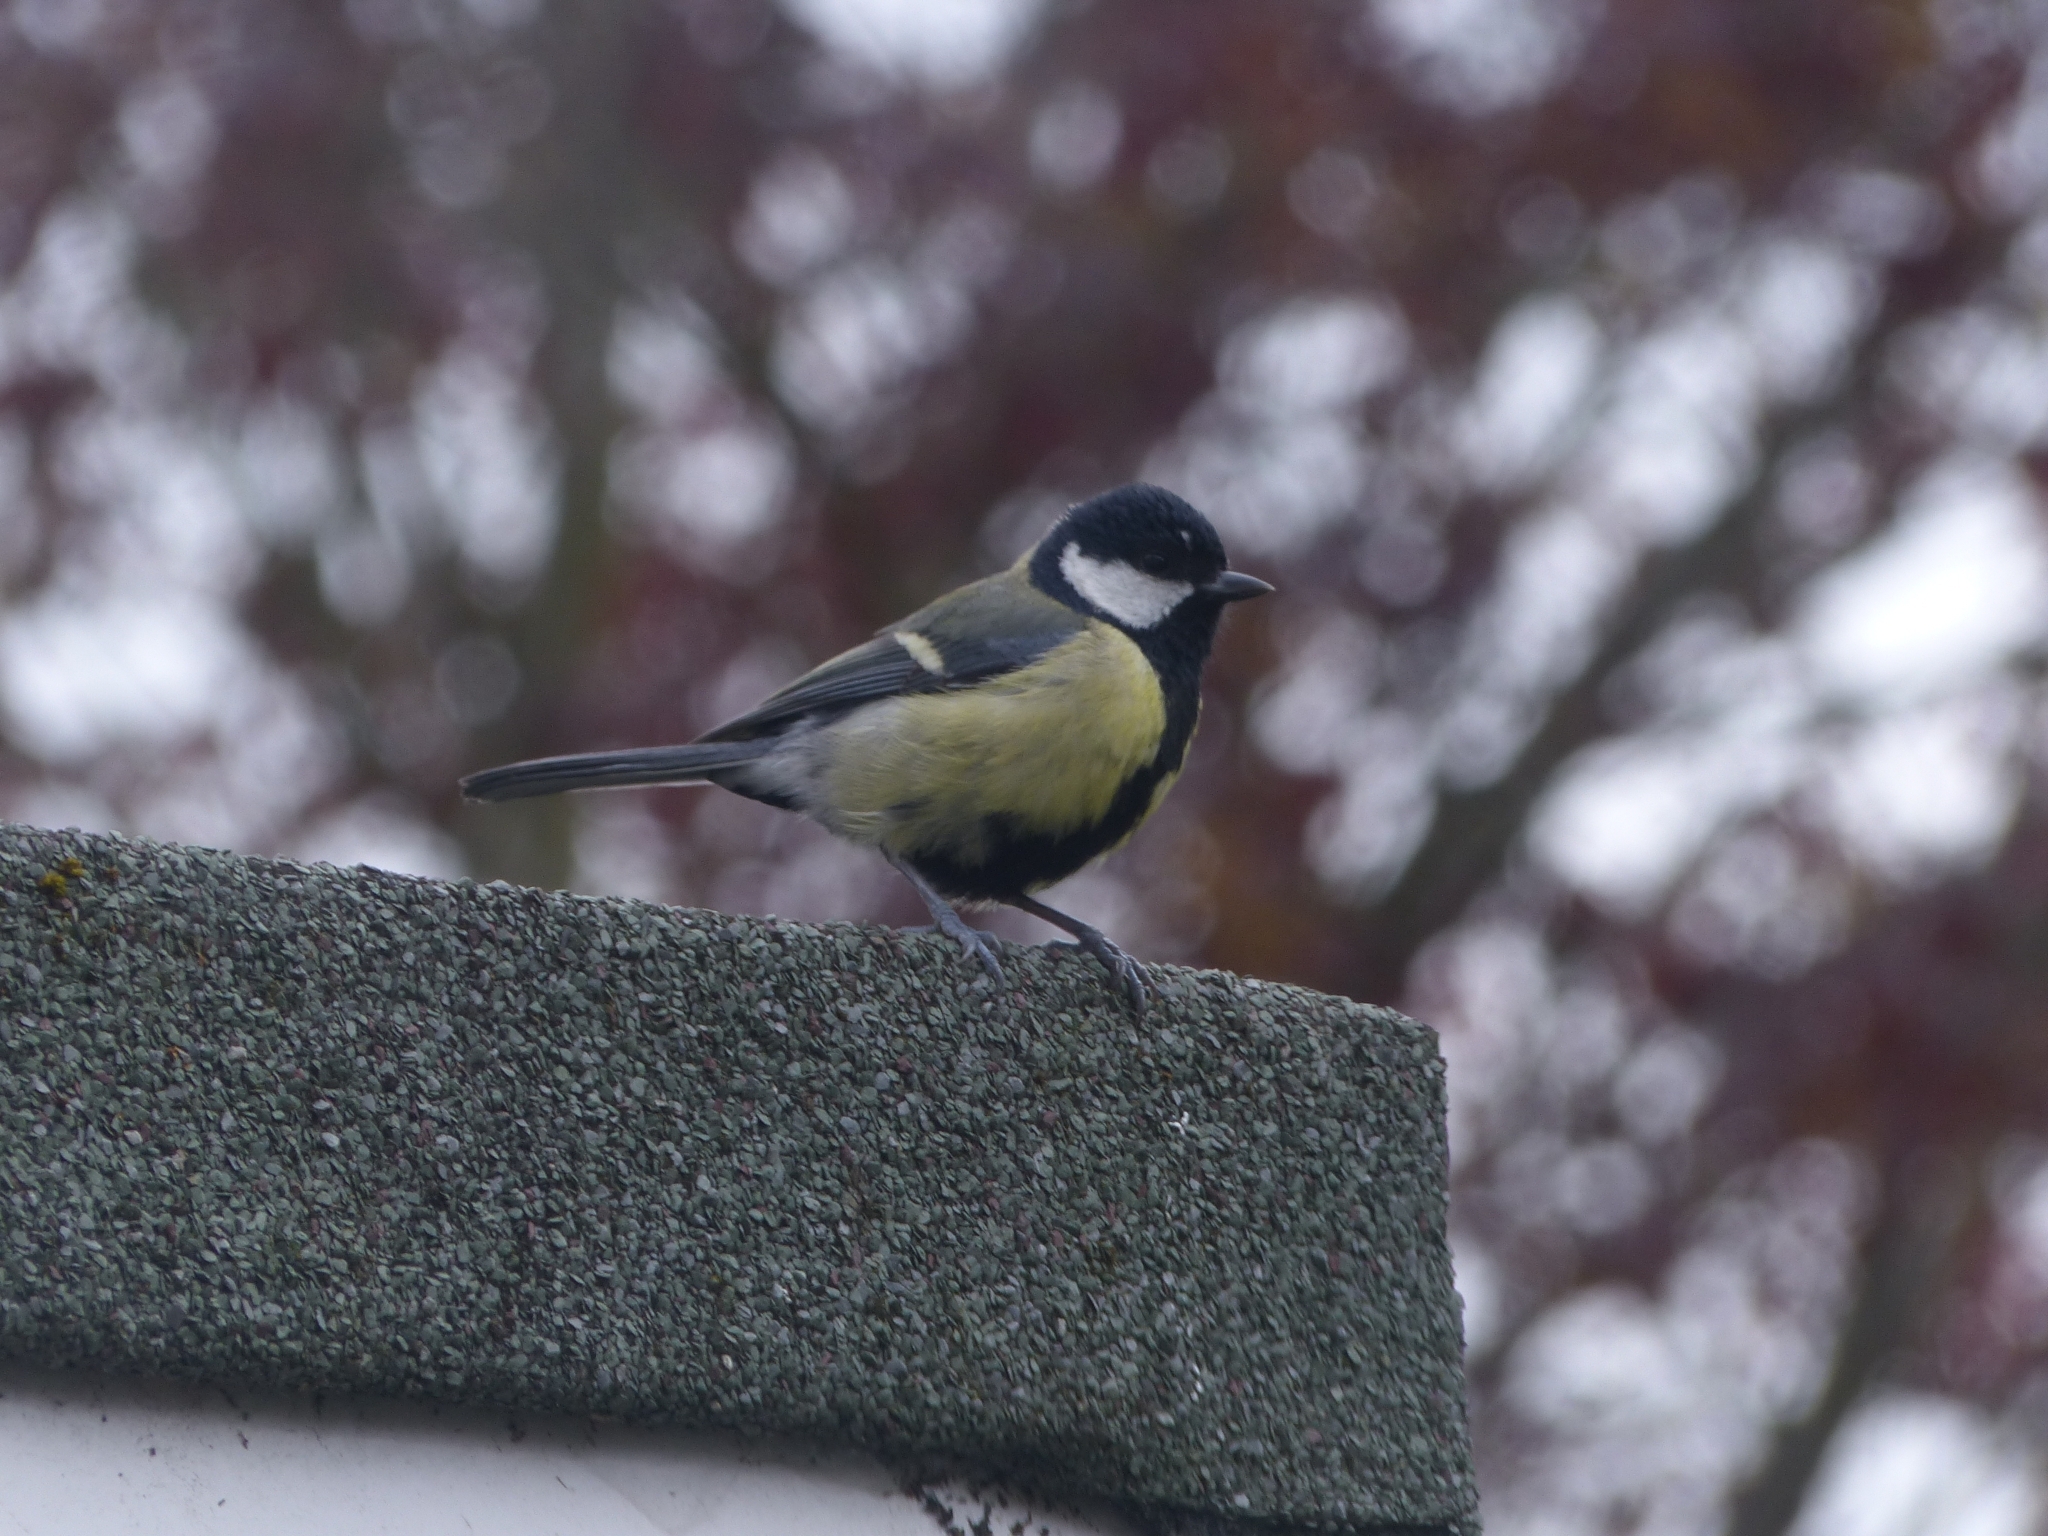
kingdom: Animalia
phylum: Chordata
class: Aves
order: Passeriformes
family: Paridae
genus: Parus
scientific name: Parus major
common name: Great tit
